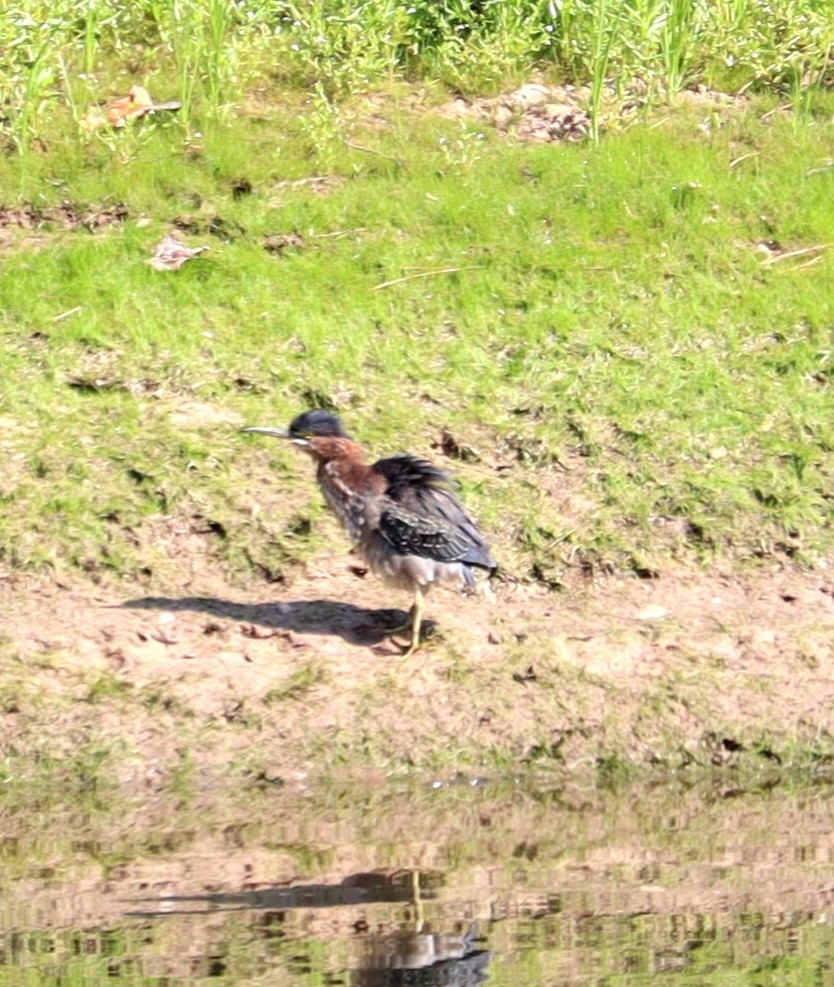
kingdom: Animalia
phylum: Chordata
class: Aves
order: Pelecaniformes
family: Ardeidae
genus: Butorides
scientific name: Butorides virescens
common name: Green heron
